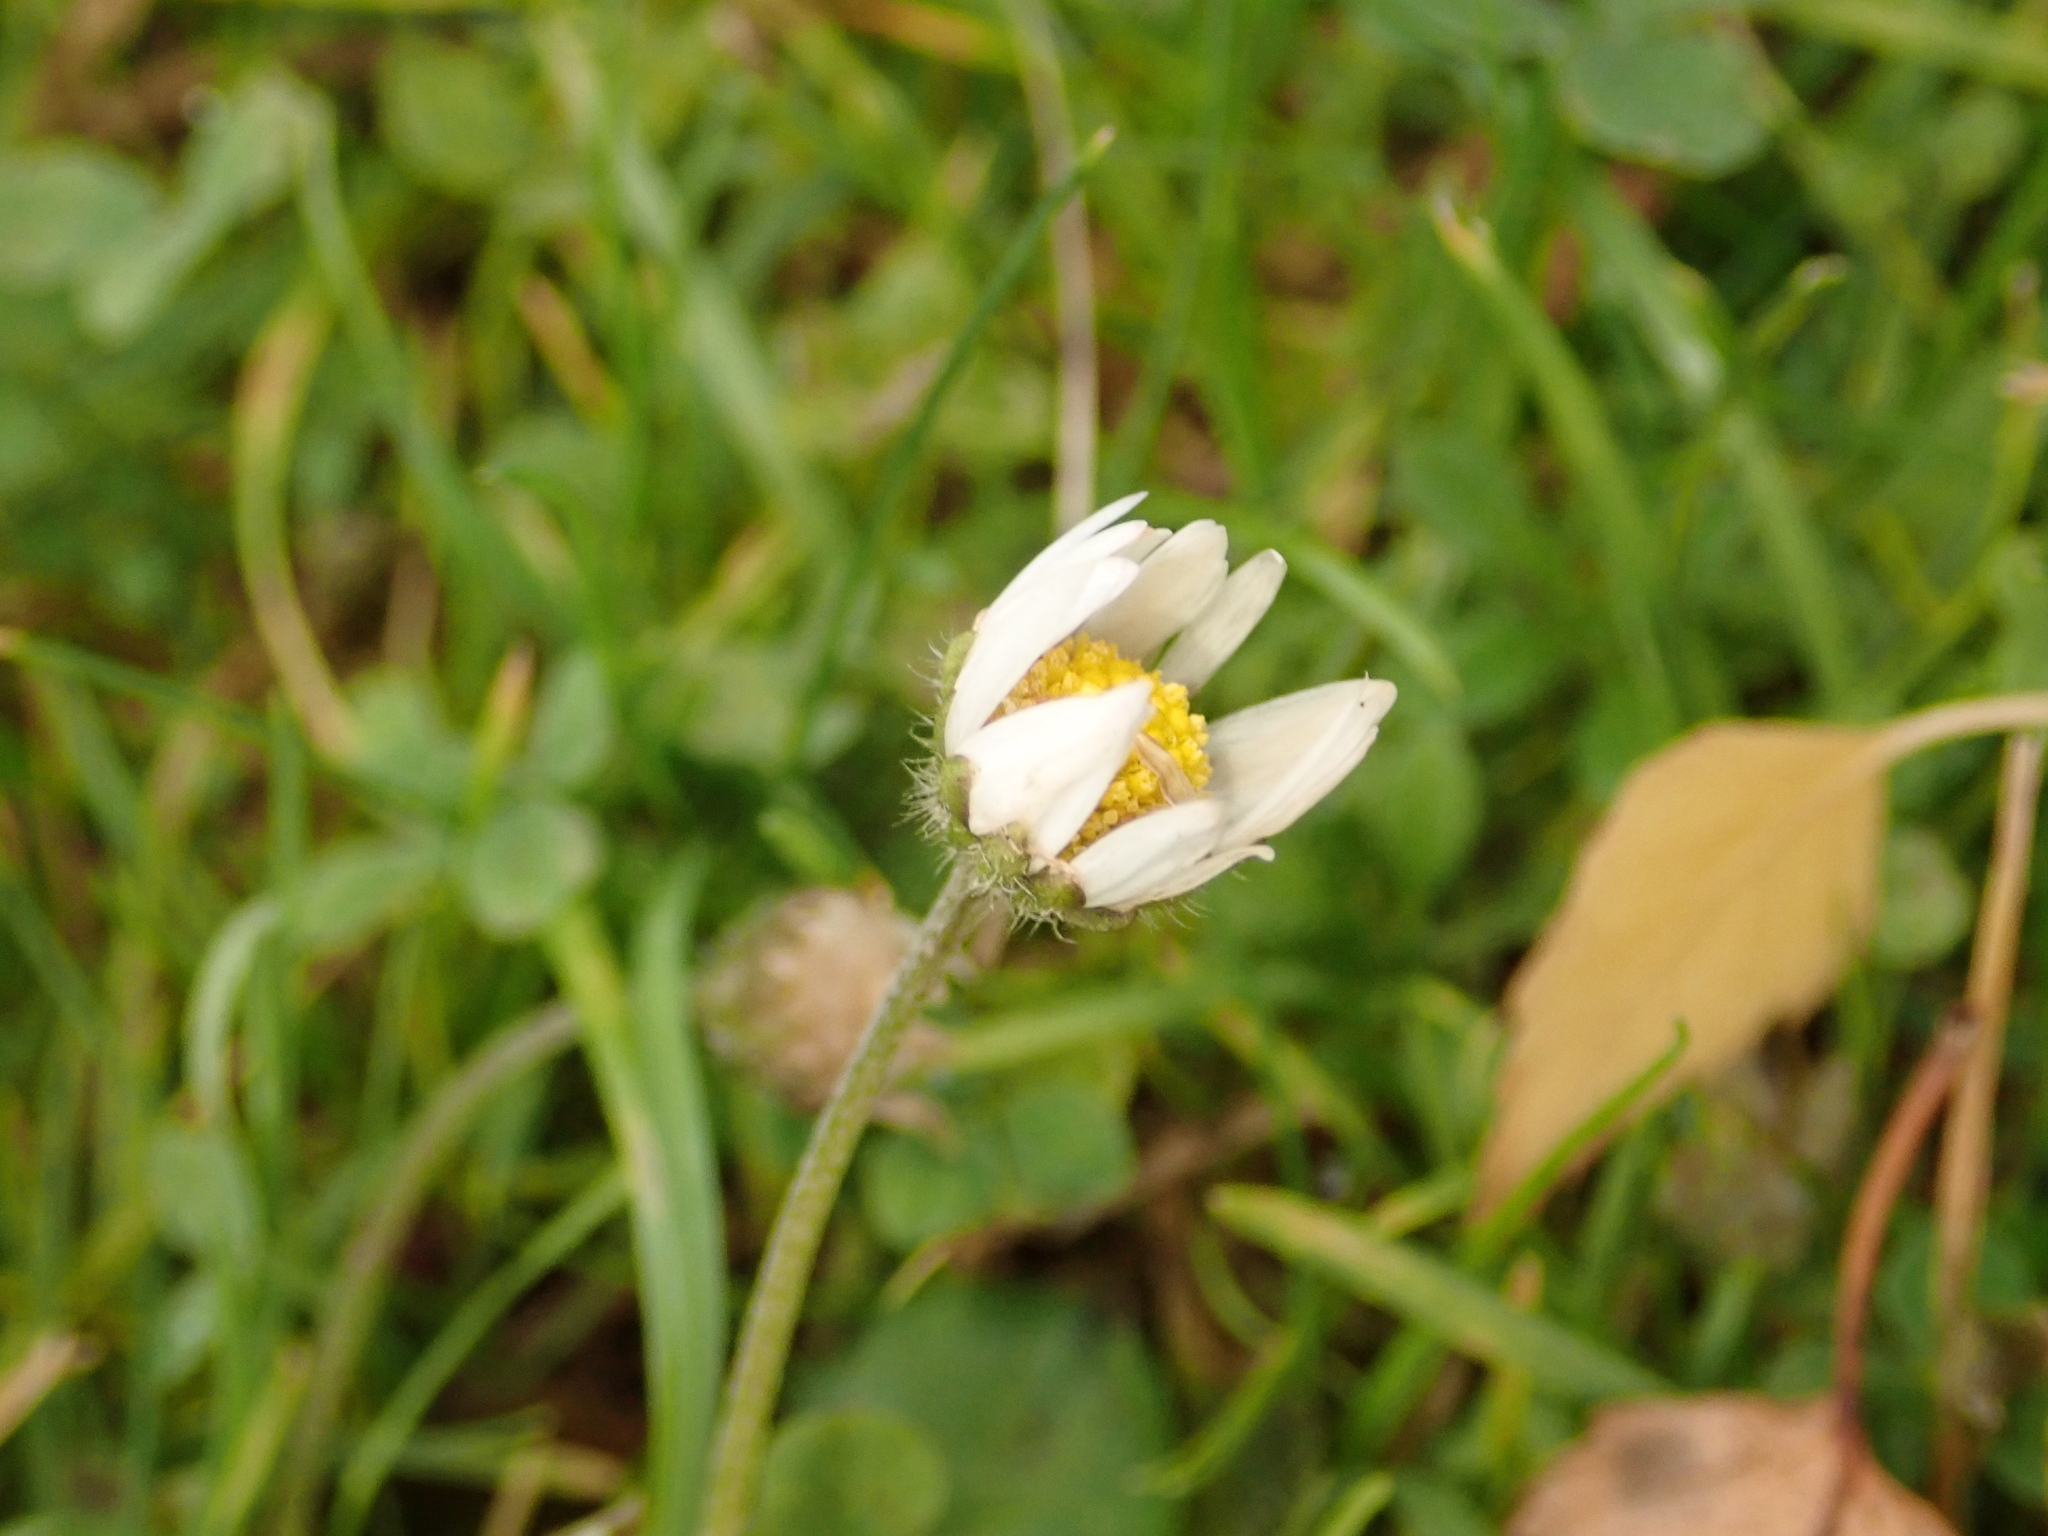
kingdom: Plantae
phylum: Tracheophyta
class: Magnoliopsida
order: Asterales
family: Asteraceae
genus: Bellis
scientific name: Bellis perennis
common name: Lawndaisy
